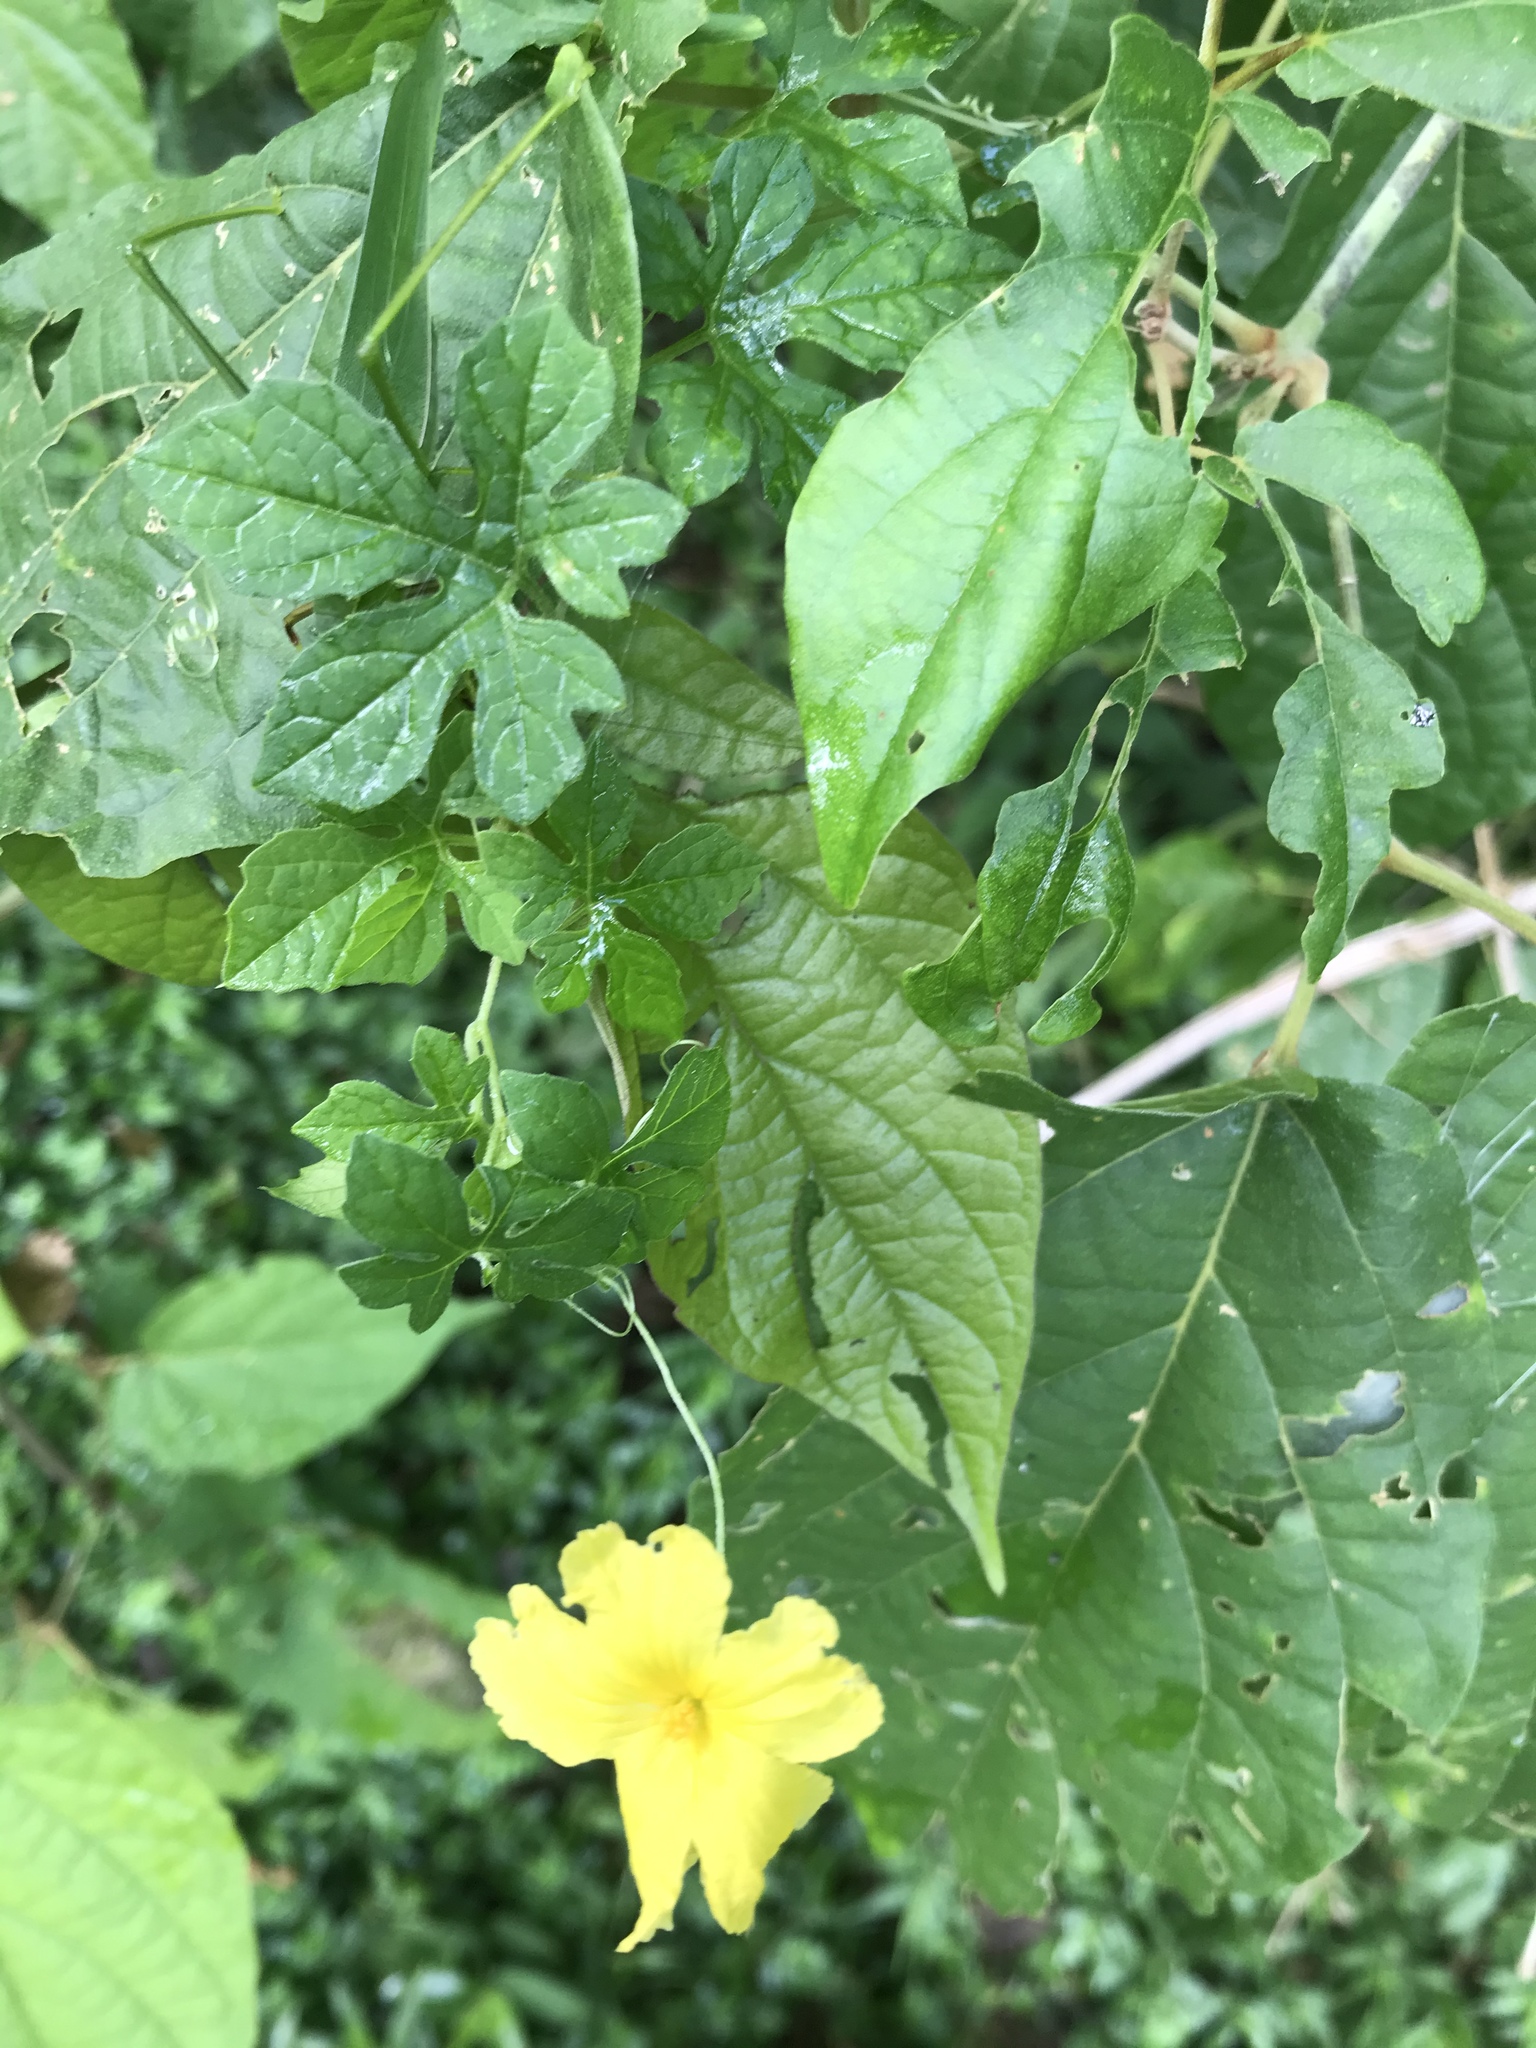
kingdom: Plantae
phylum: Tracheophyta
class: Magnoliopsida
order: Cucurbitales
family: Cucurbitaceae
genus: Momordica
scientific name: Momordica charantia
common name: Balsampear
